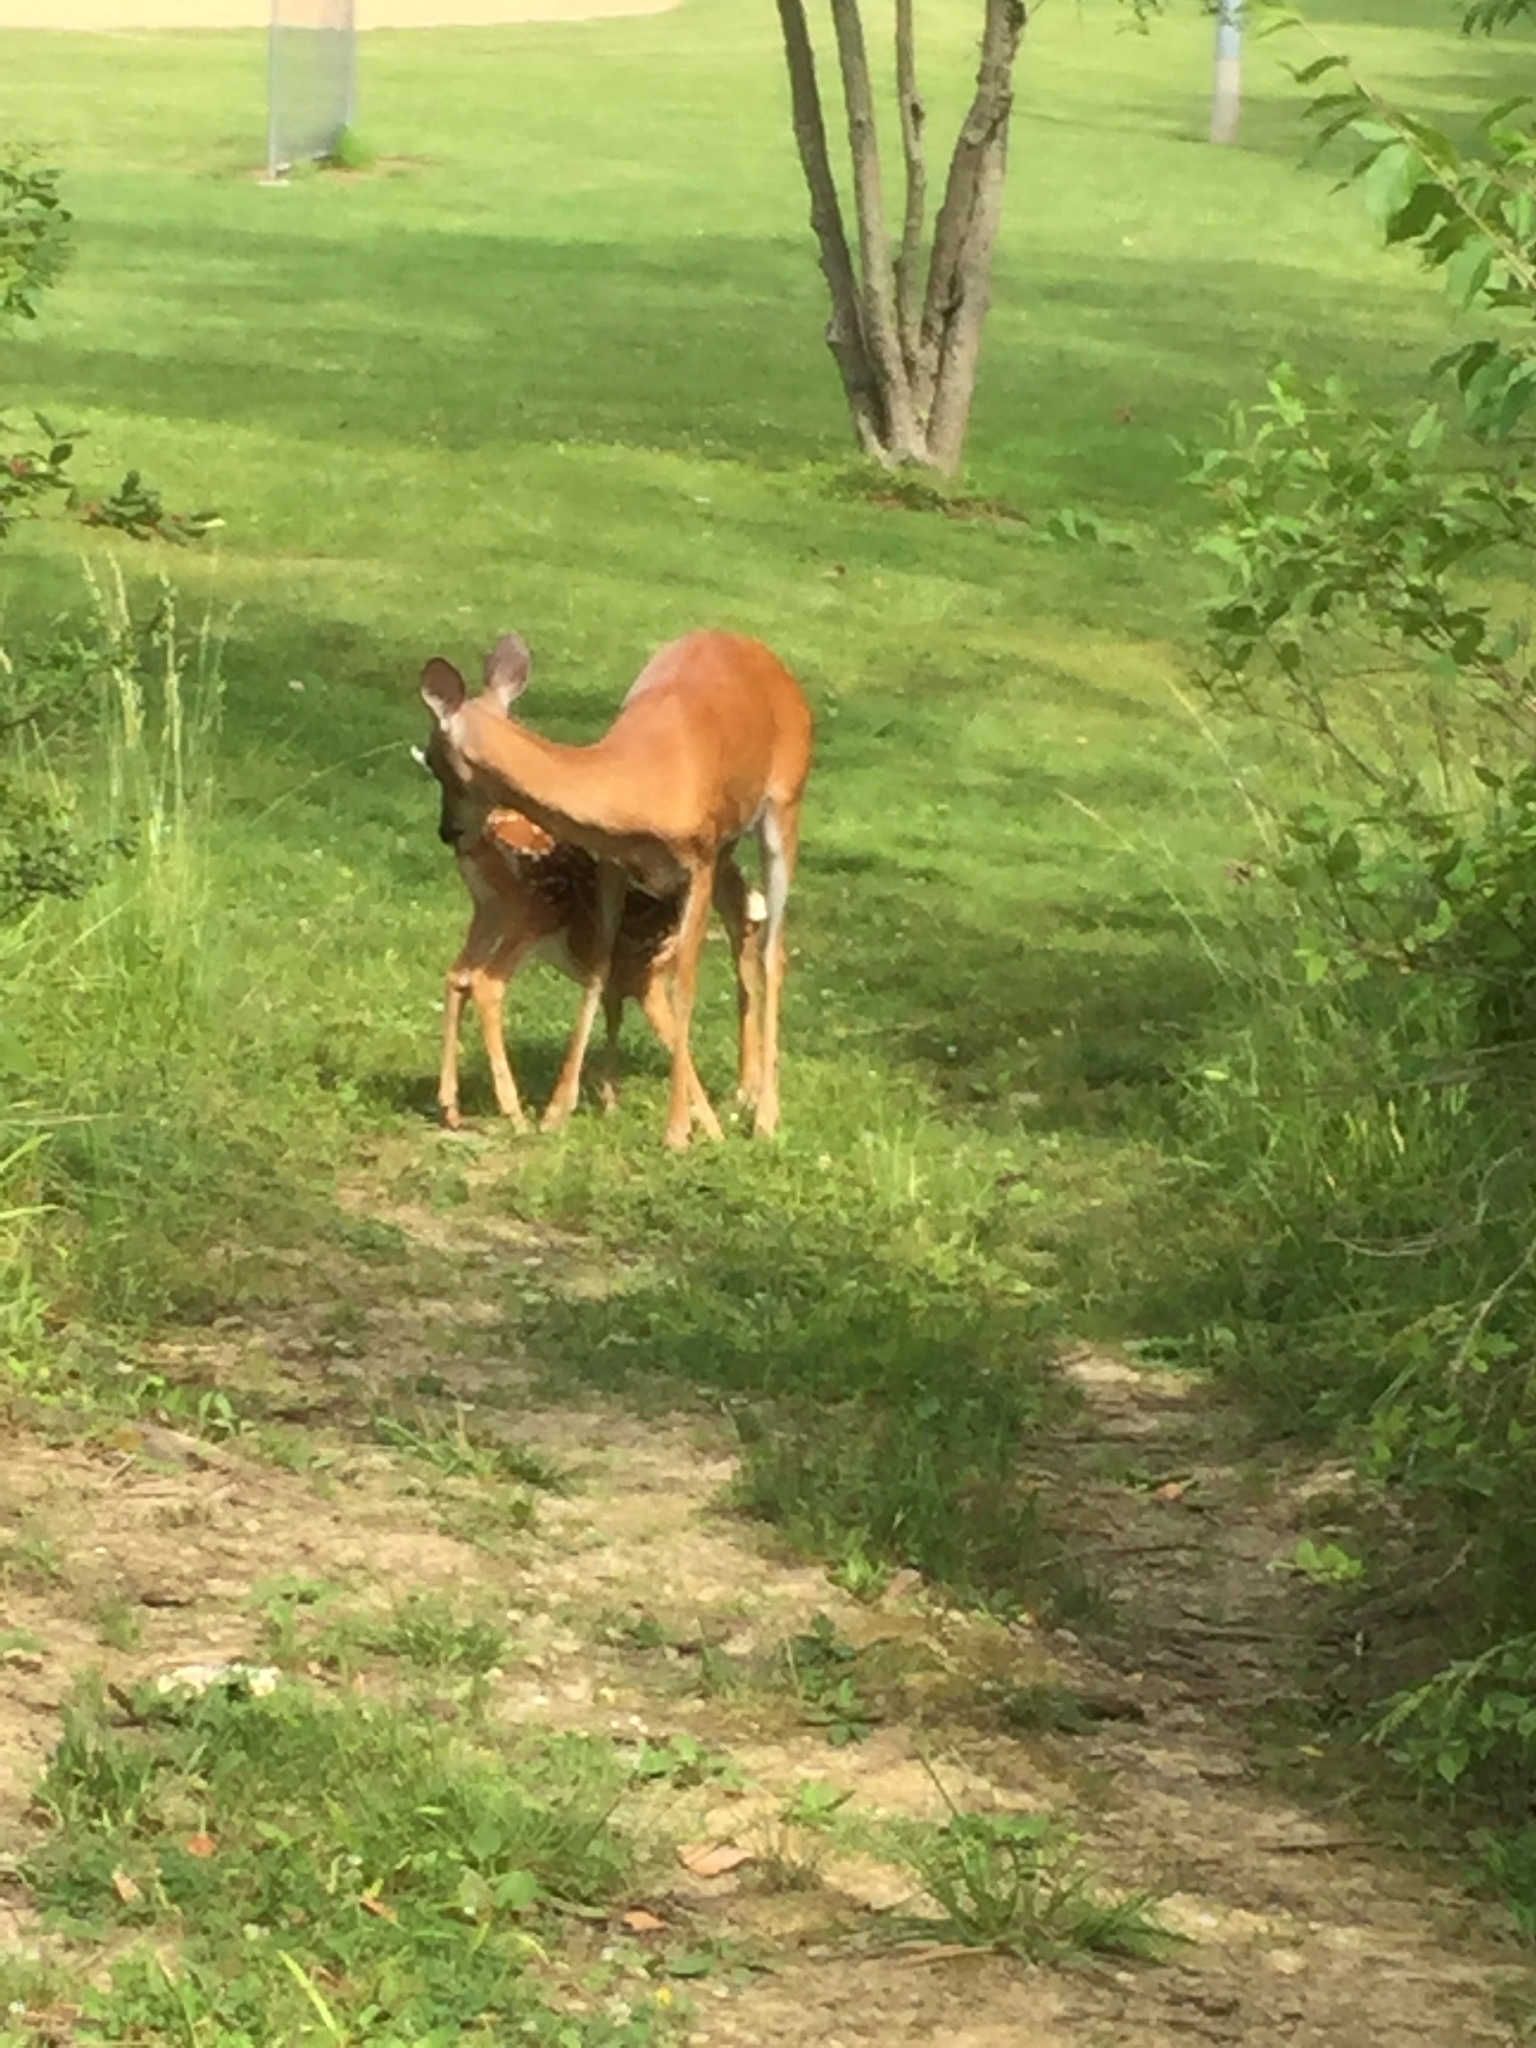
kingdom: Animalia
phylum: Chordata
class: Mammalia
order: Artiodactyla
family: Cervidae
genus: Odocoileus
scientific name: Odocoileus virginianus
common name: White-tailed deer
